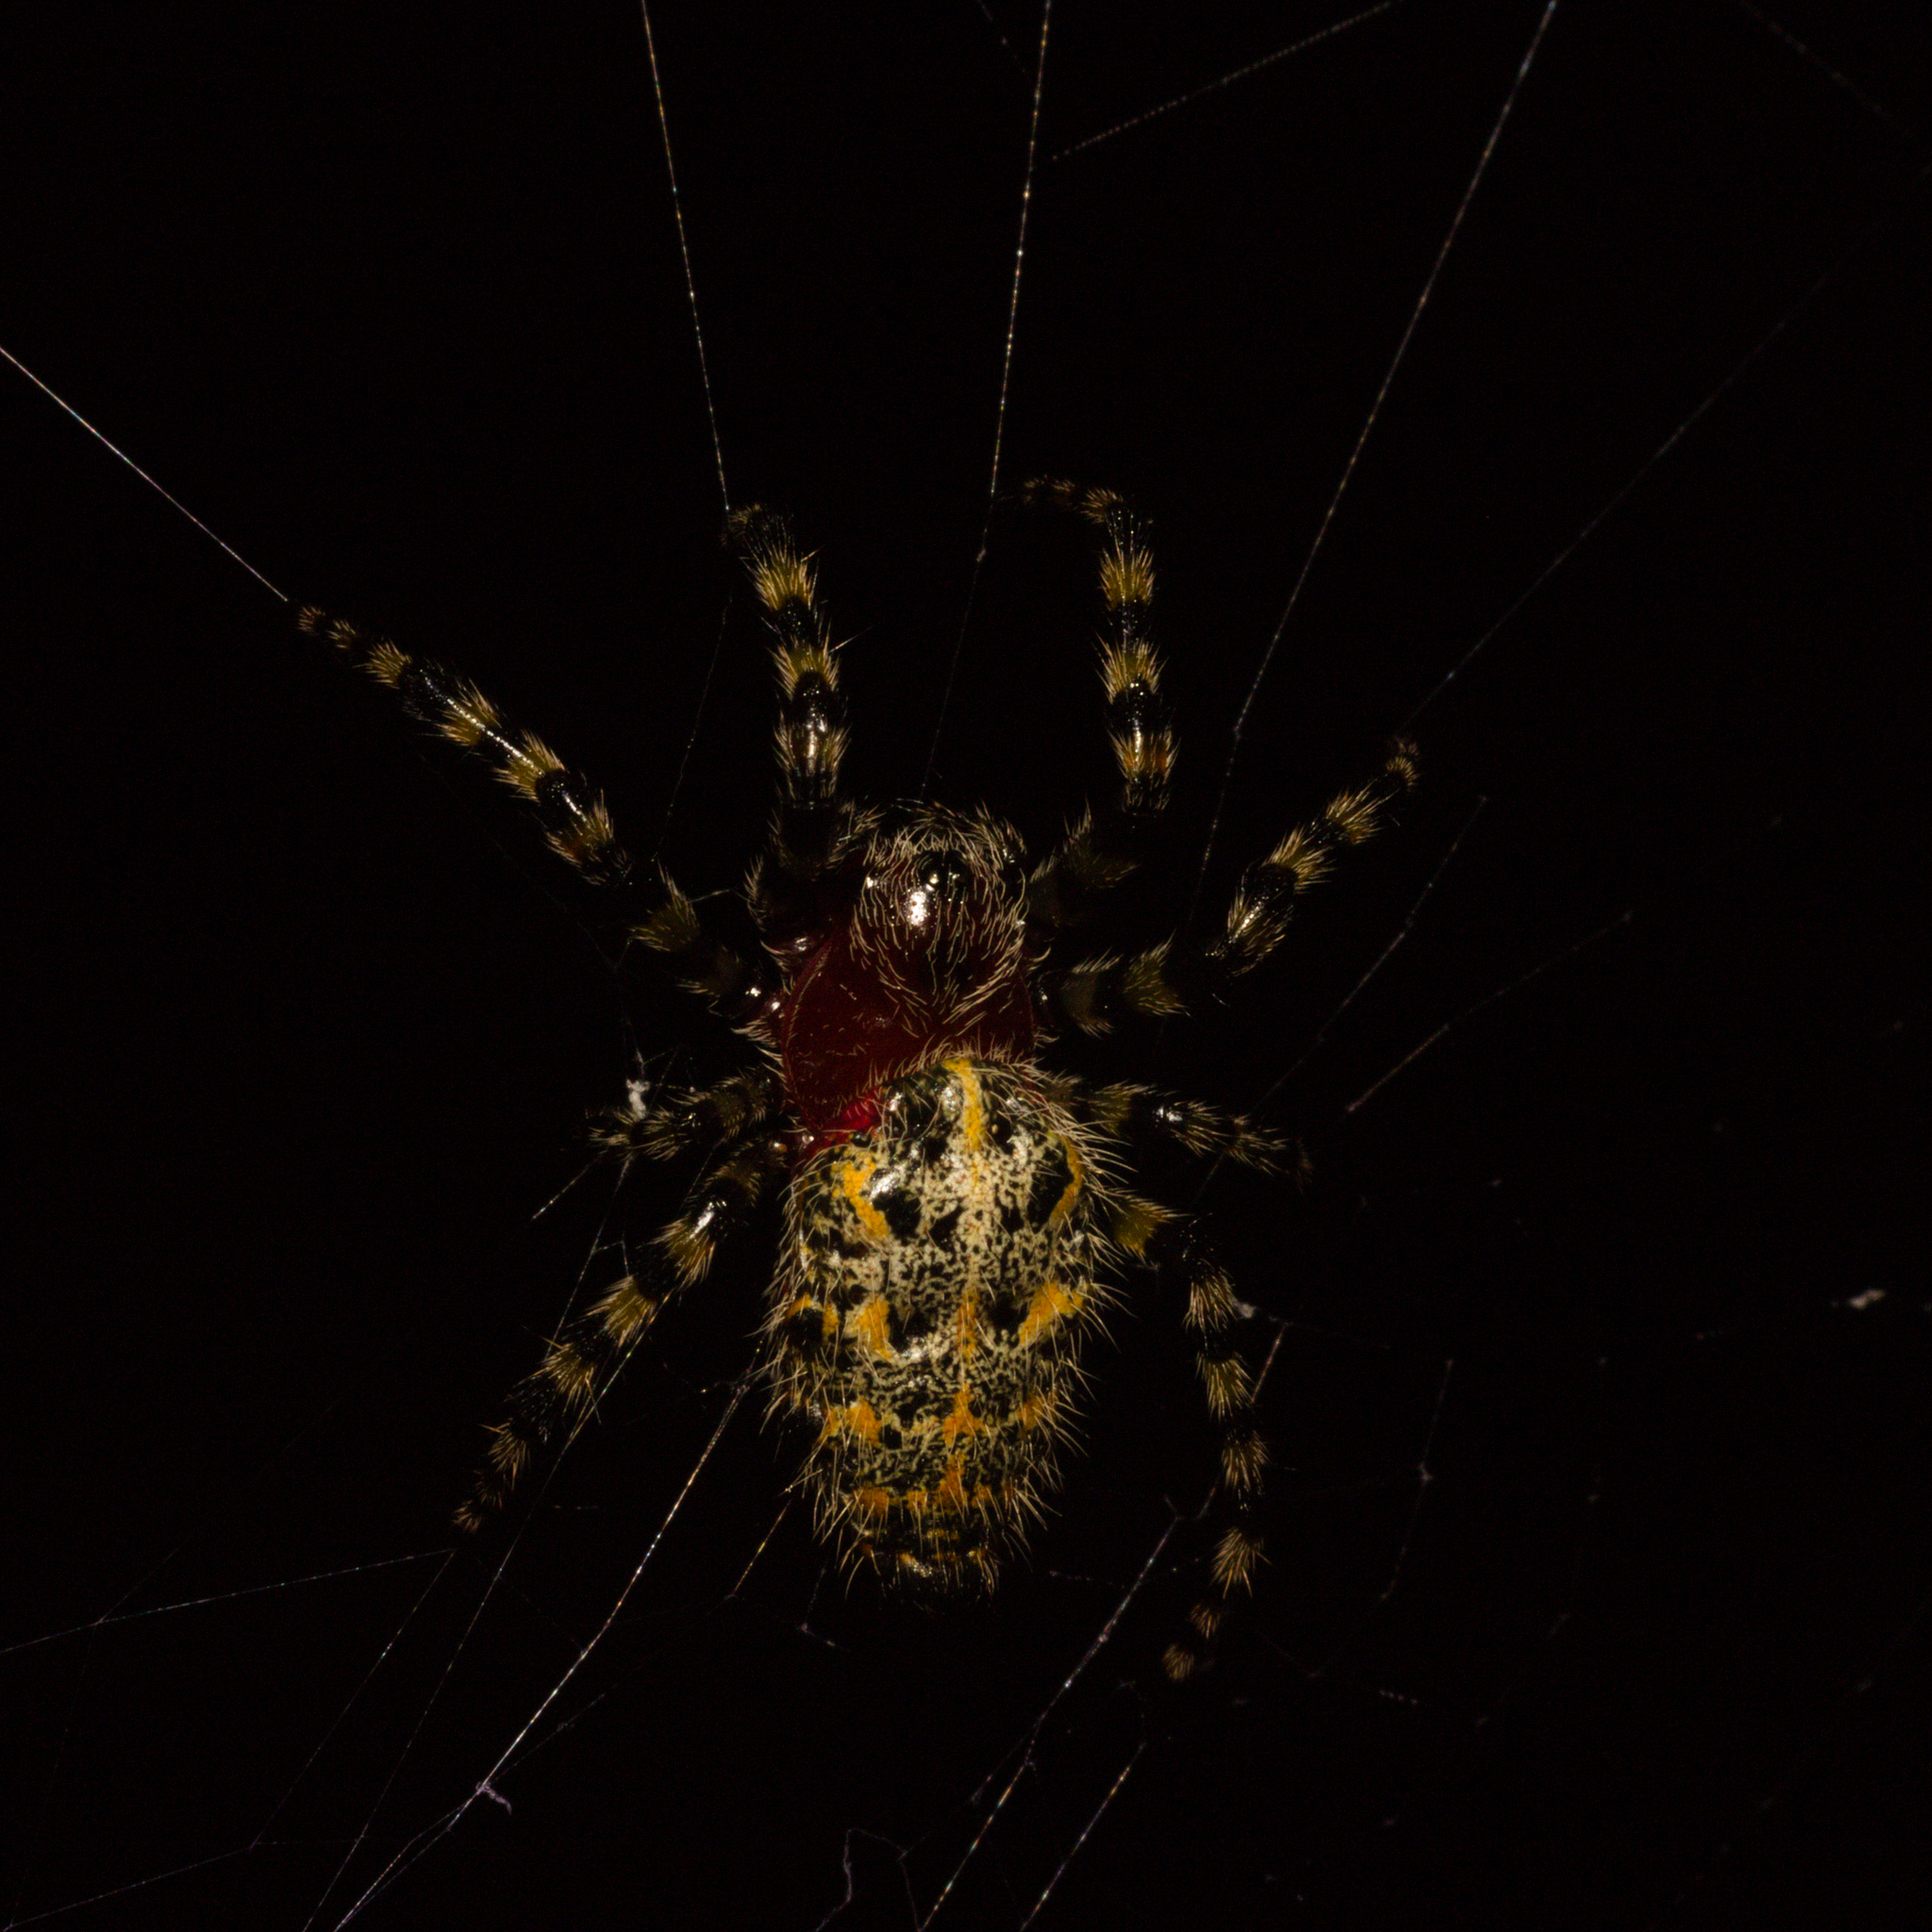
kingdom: Animalia
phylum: Arthropoda
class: Arachnida
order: Araneae
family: Araneidae
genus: Alpaida
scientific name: Alpaida alticeps
